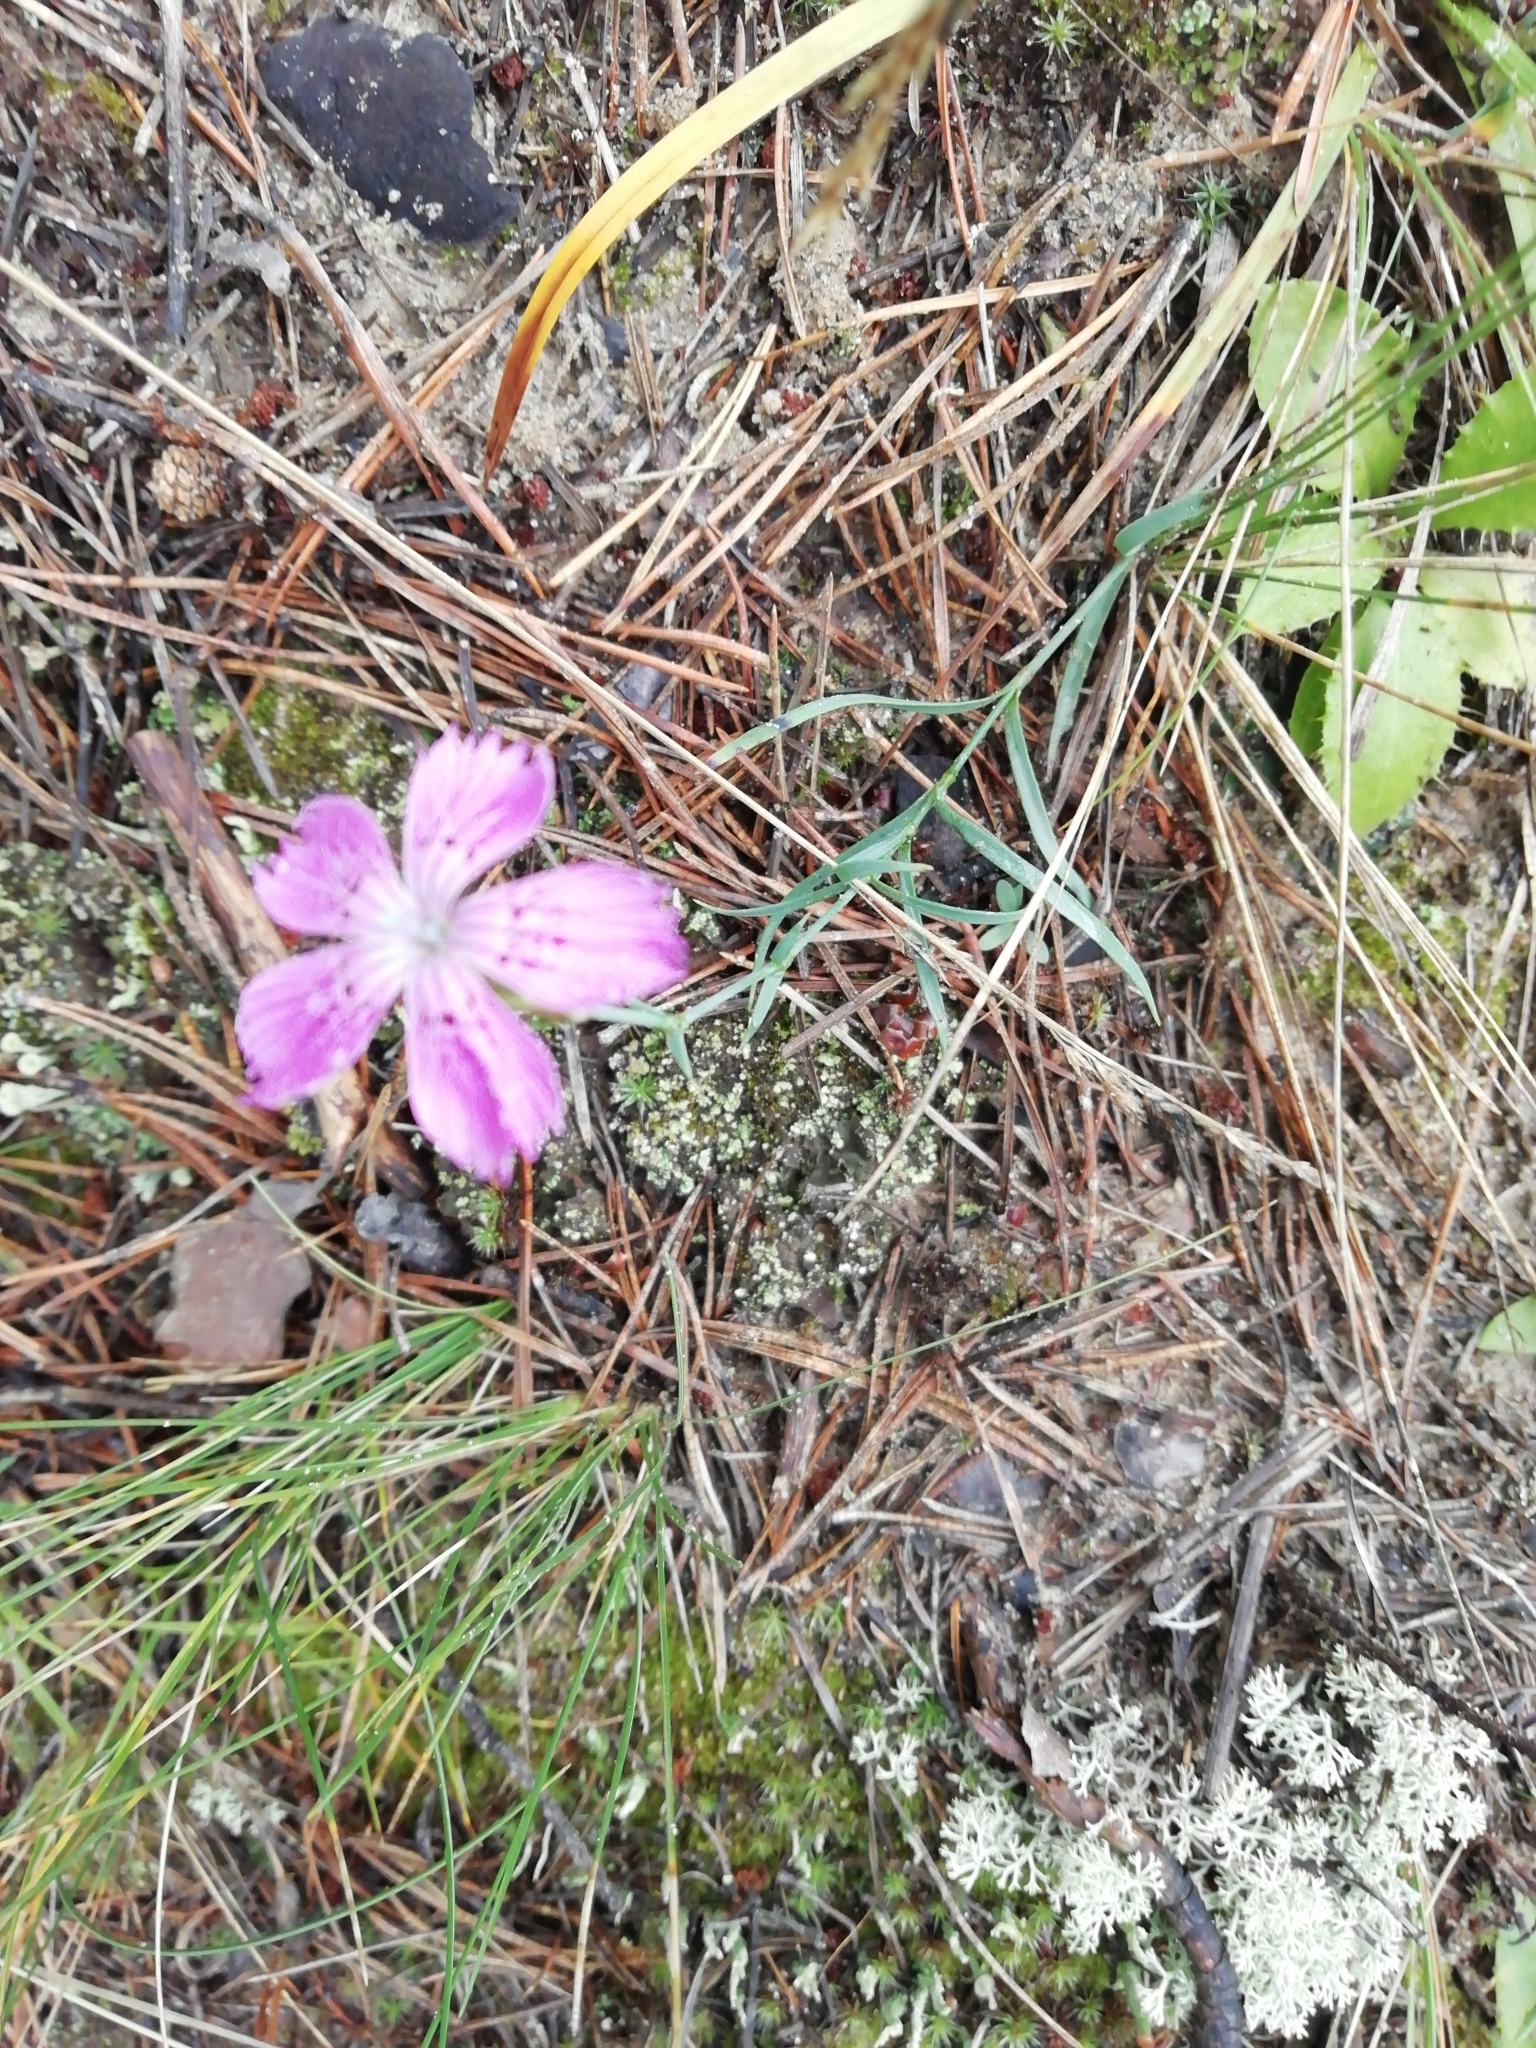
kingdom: Plantae
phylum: Tracheophyta
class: Magnoliopsida
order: Caryophyllales
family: Caryophyllaceae
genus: Dianthus
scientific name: Dianthus chinensis
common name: Rainbow pink
